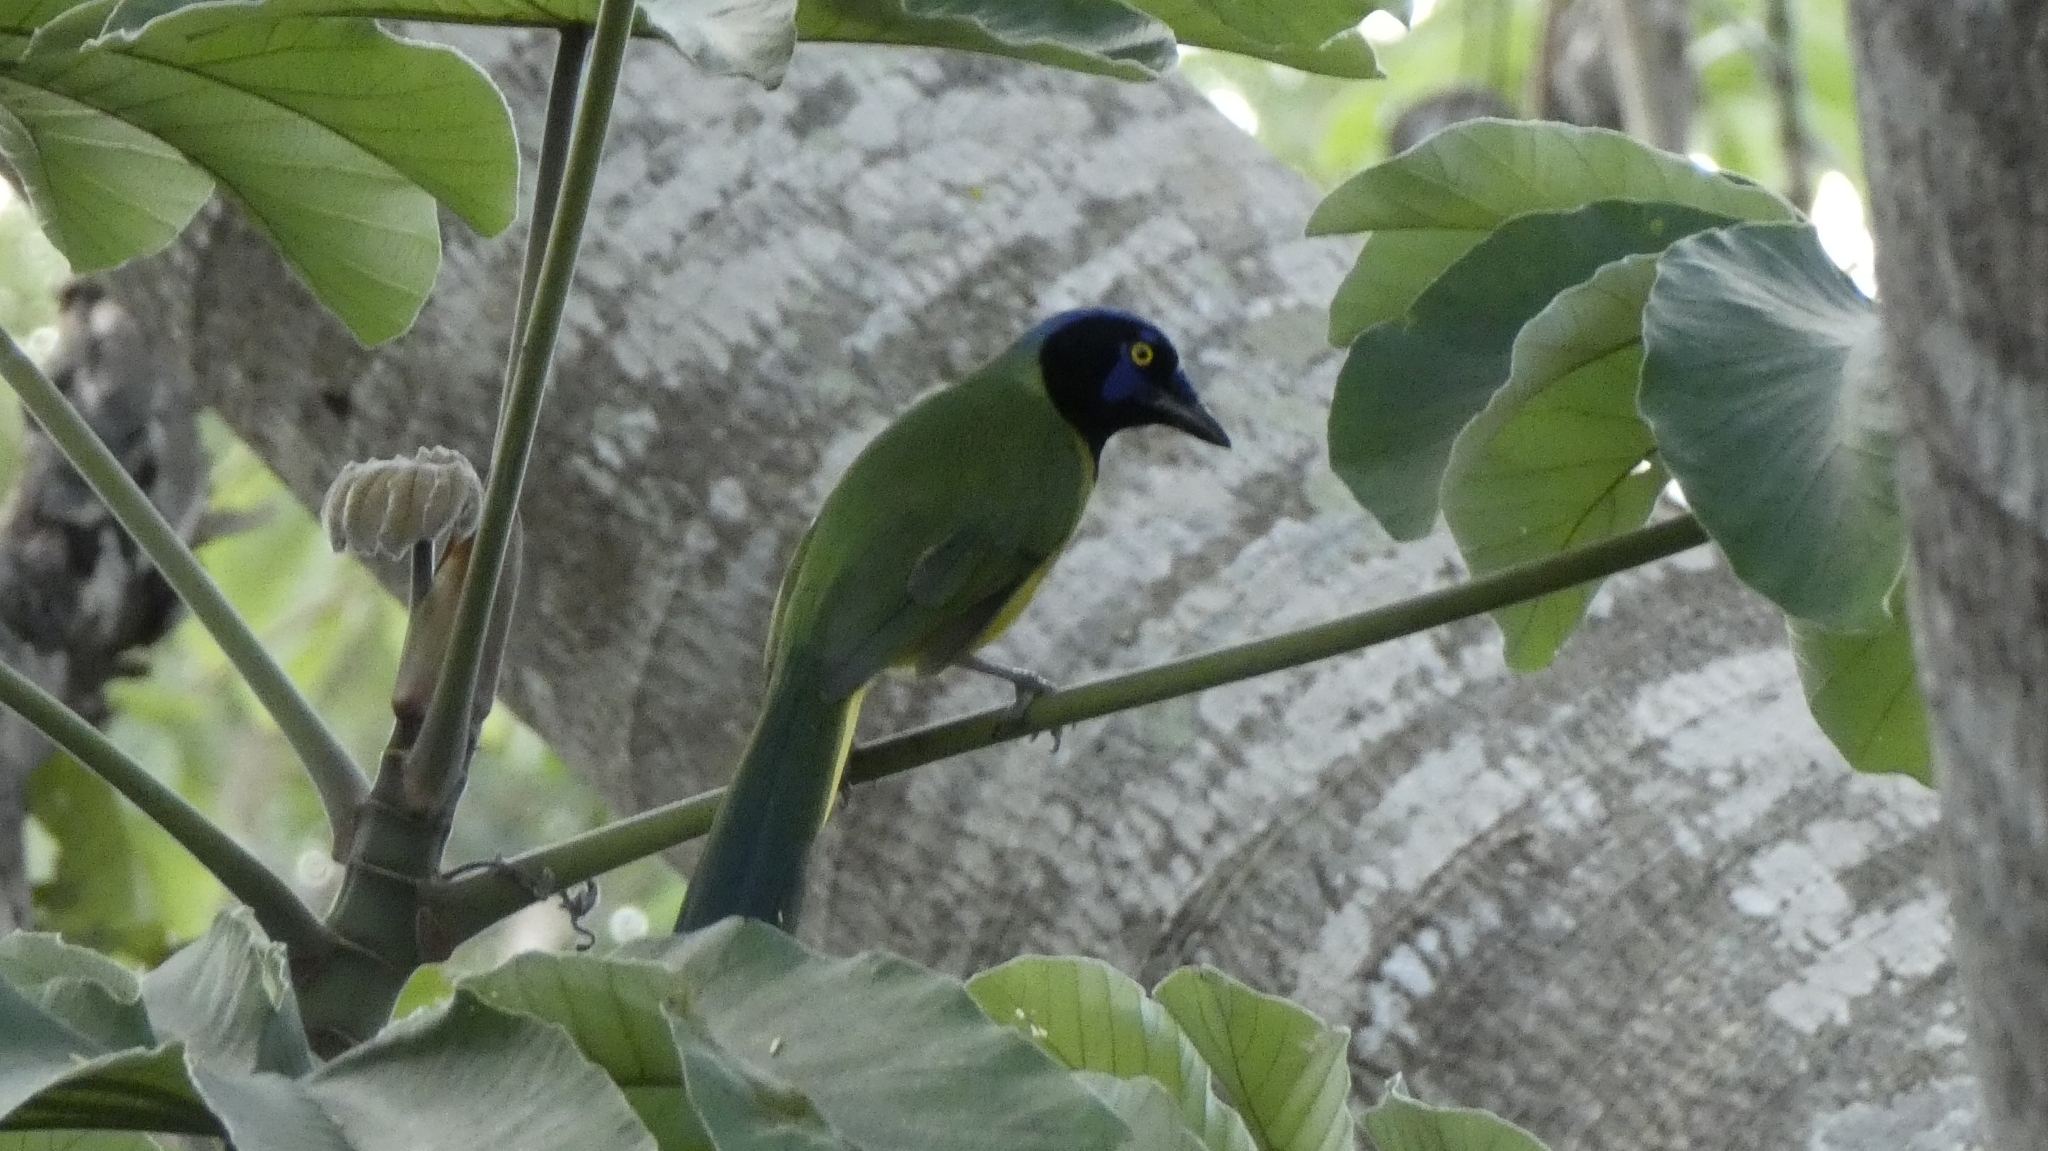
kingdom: Animalia
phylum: Chordata
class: Aves
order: Passeriformes
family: Corvidae
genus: Cyanocorax
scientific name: Cyanocorax yncas
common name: Green jay
